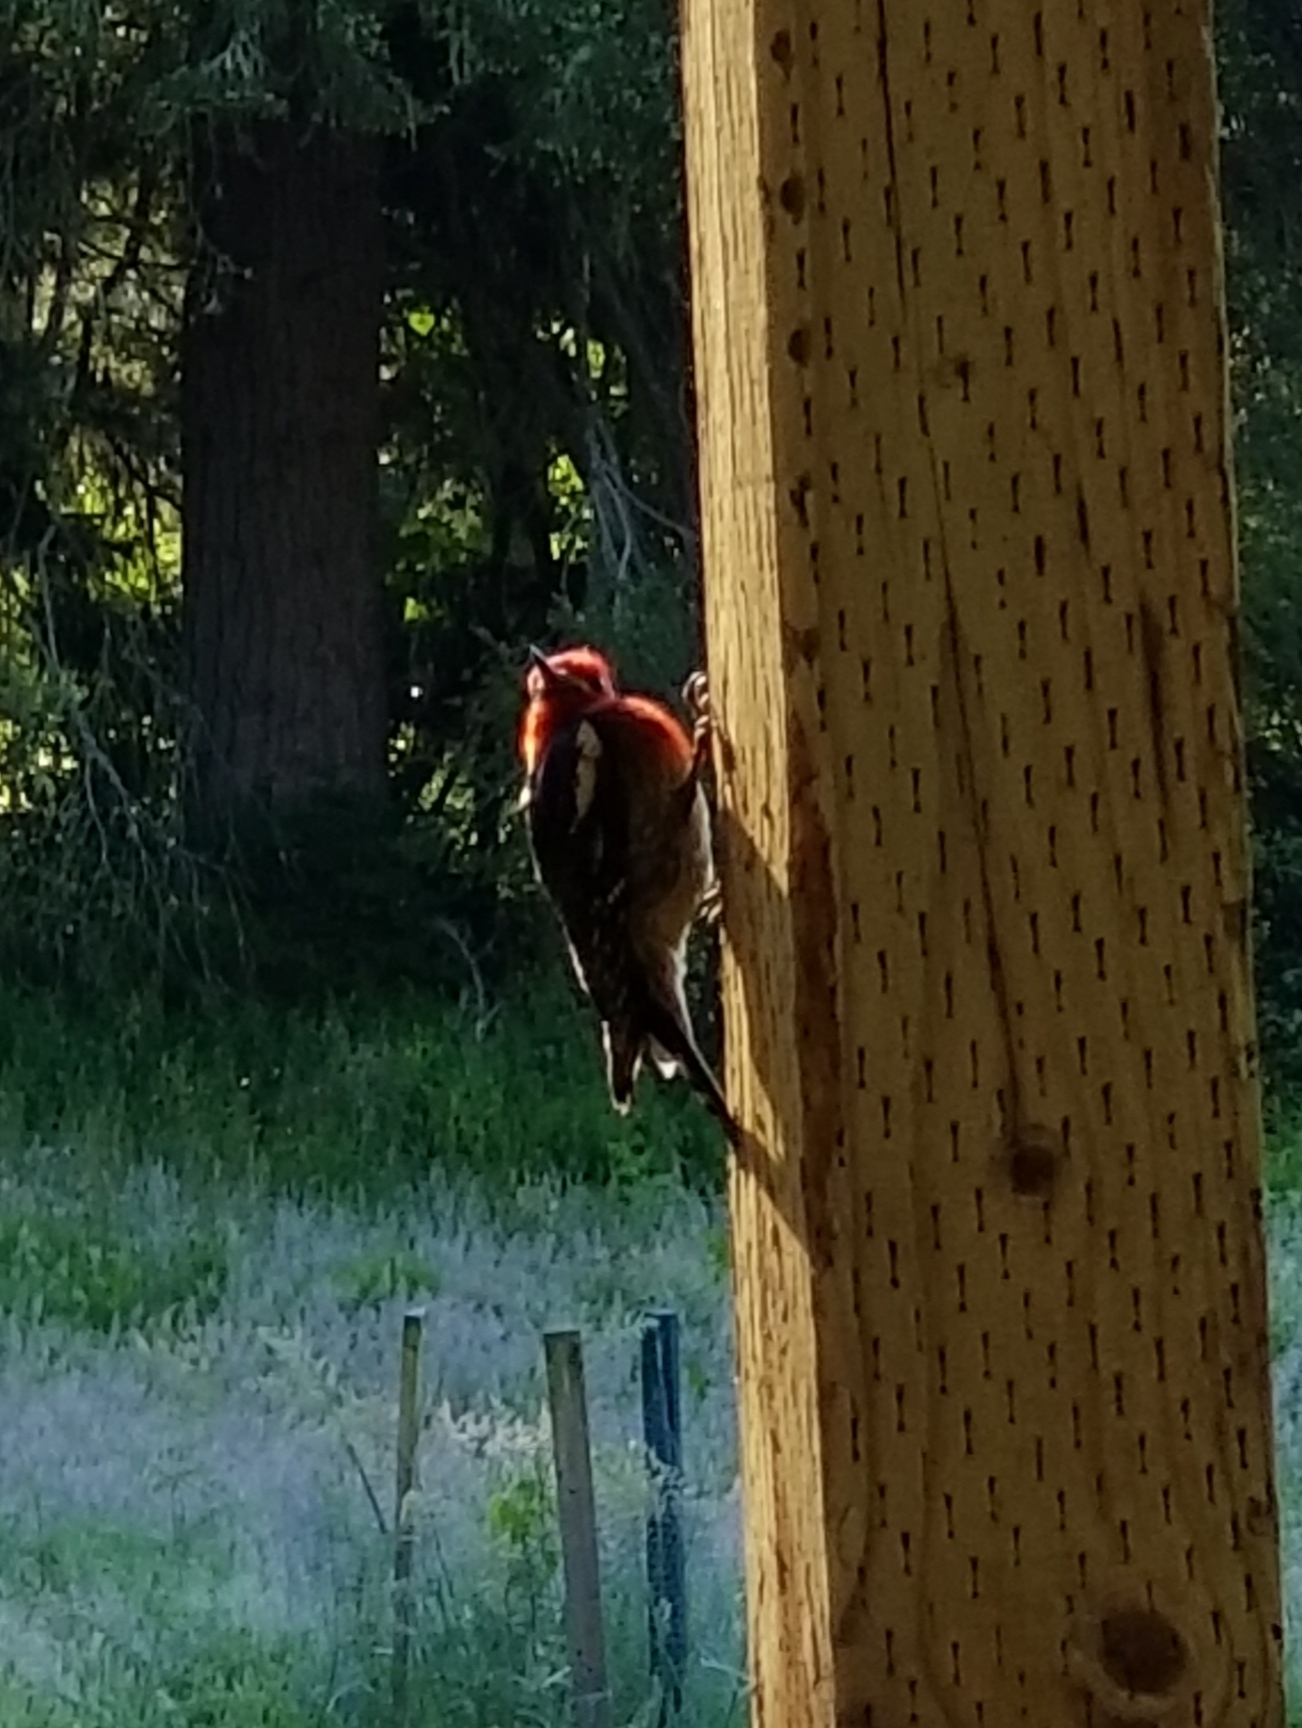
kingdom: Animalia
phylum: Chordata
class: Aves
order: Piciformes
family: Picidae
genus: Sphyrapicus
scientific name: Sphyrapicus ruber
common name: Red-breasted sapsucker
